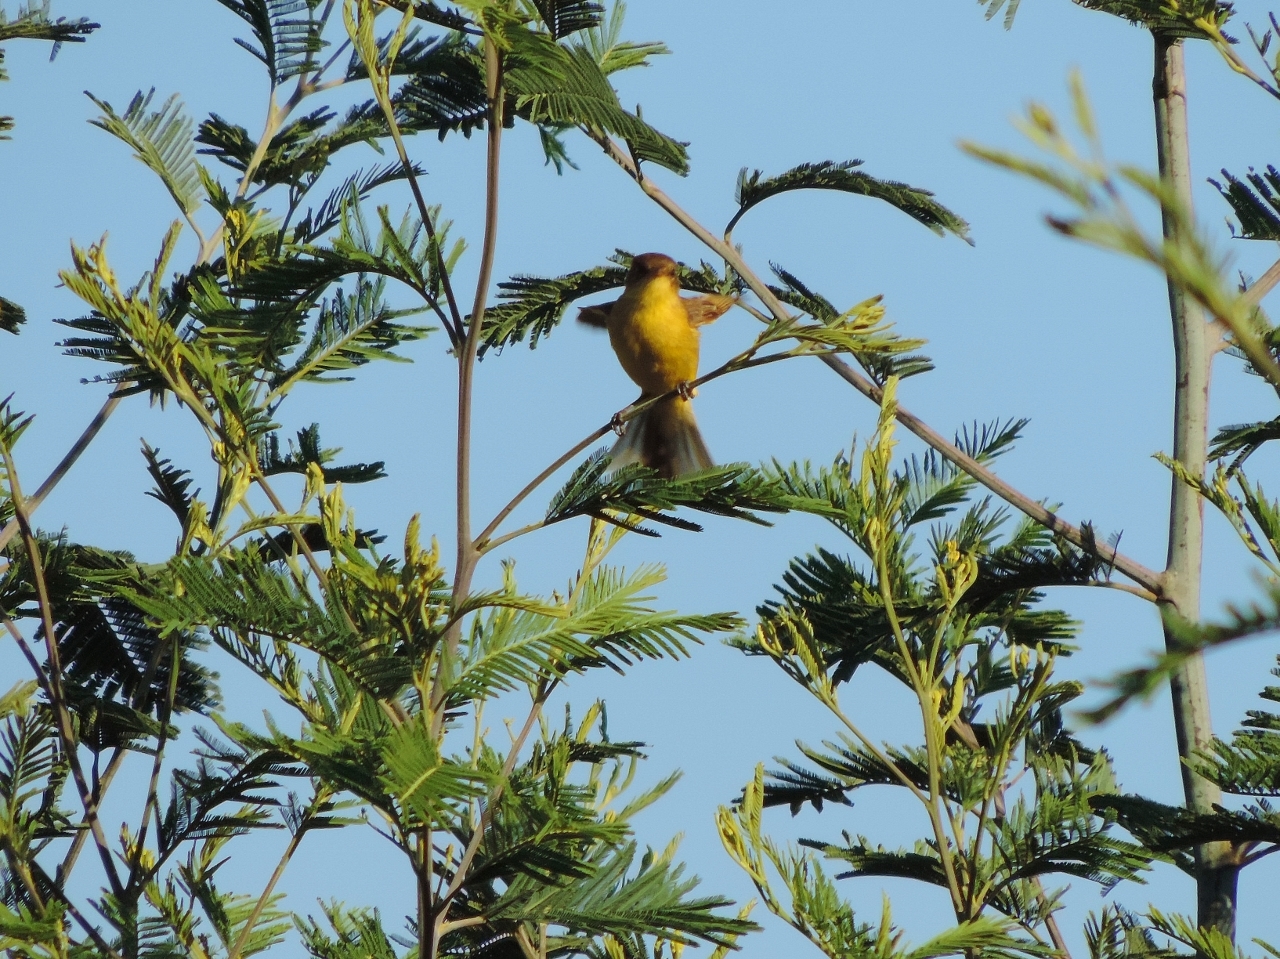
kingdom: Animalia
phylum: Chordata
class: Aves
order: Passeriformes
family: Acrocephalidae
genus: Iduna
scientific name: Iduna natalensis
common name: African yellow warbler
